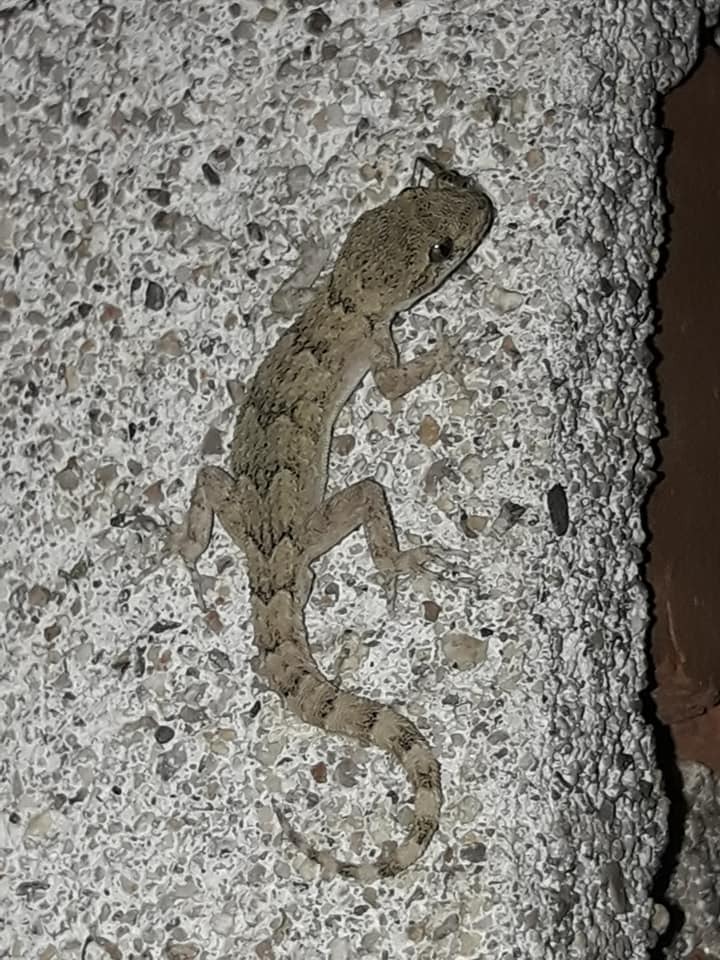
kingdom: Animalia
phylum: Chordata
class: Squamata
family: Gekkonidae
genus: Mediodactylus
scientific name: Mediodactylus kotschyi
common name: Kotschy's gecko
